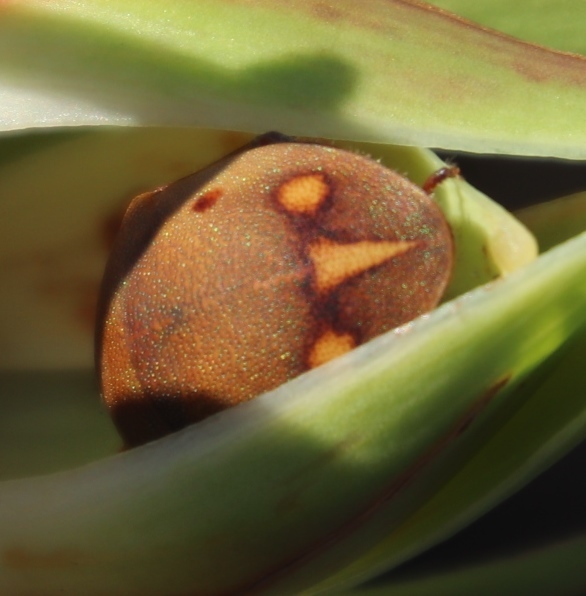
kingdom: Animalia
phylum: Arthropoda
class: Insecta
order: Hemiptera
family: Scutelleridae
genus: Solenosthedium
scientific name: Solenosthedium
